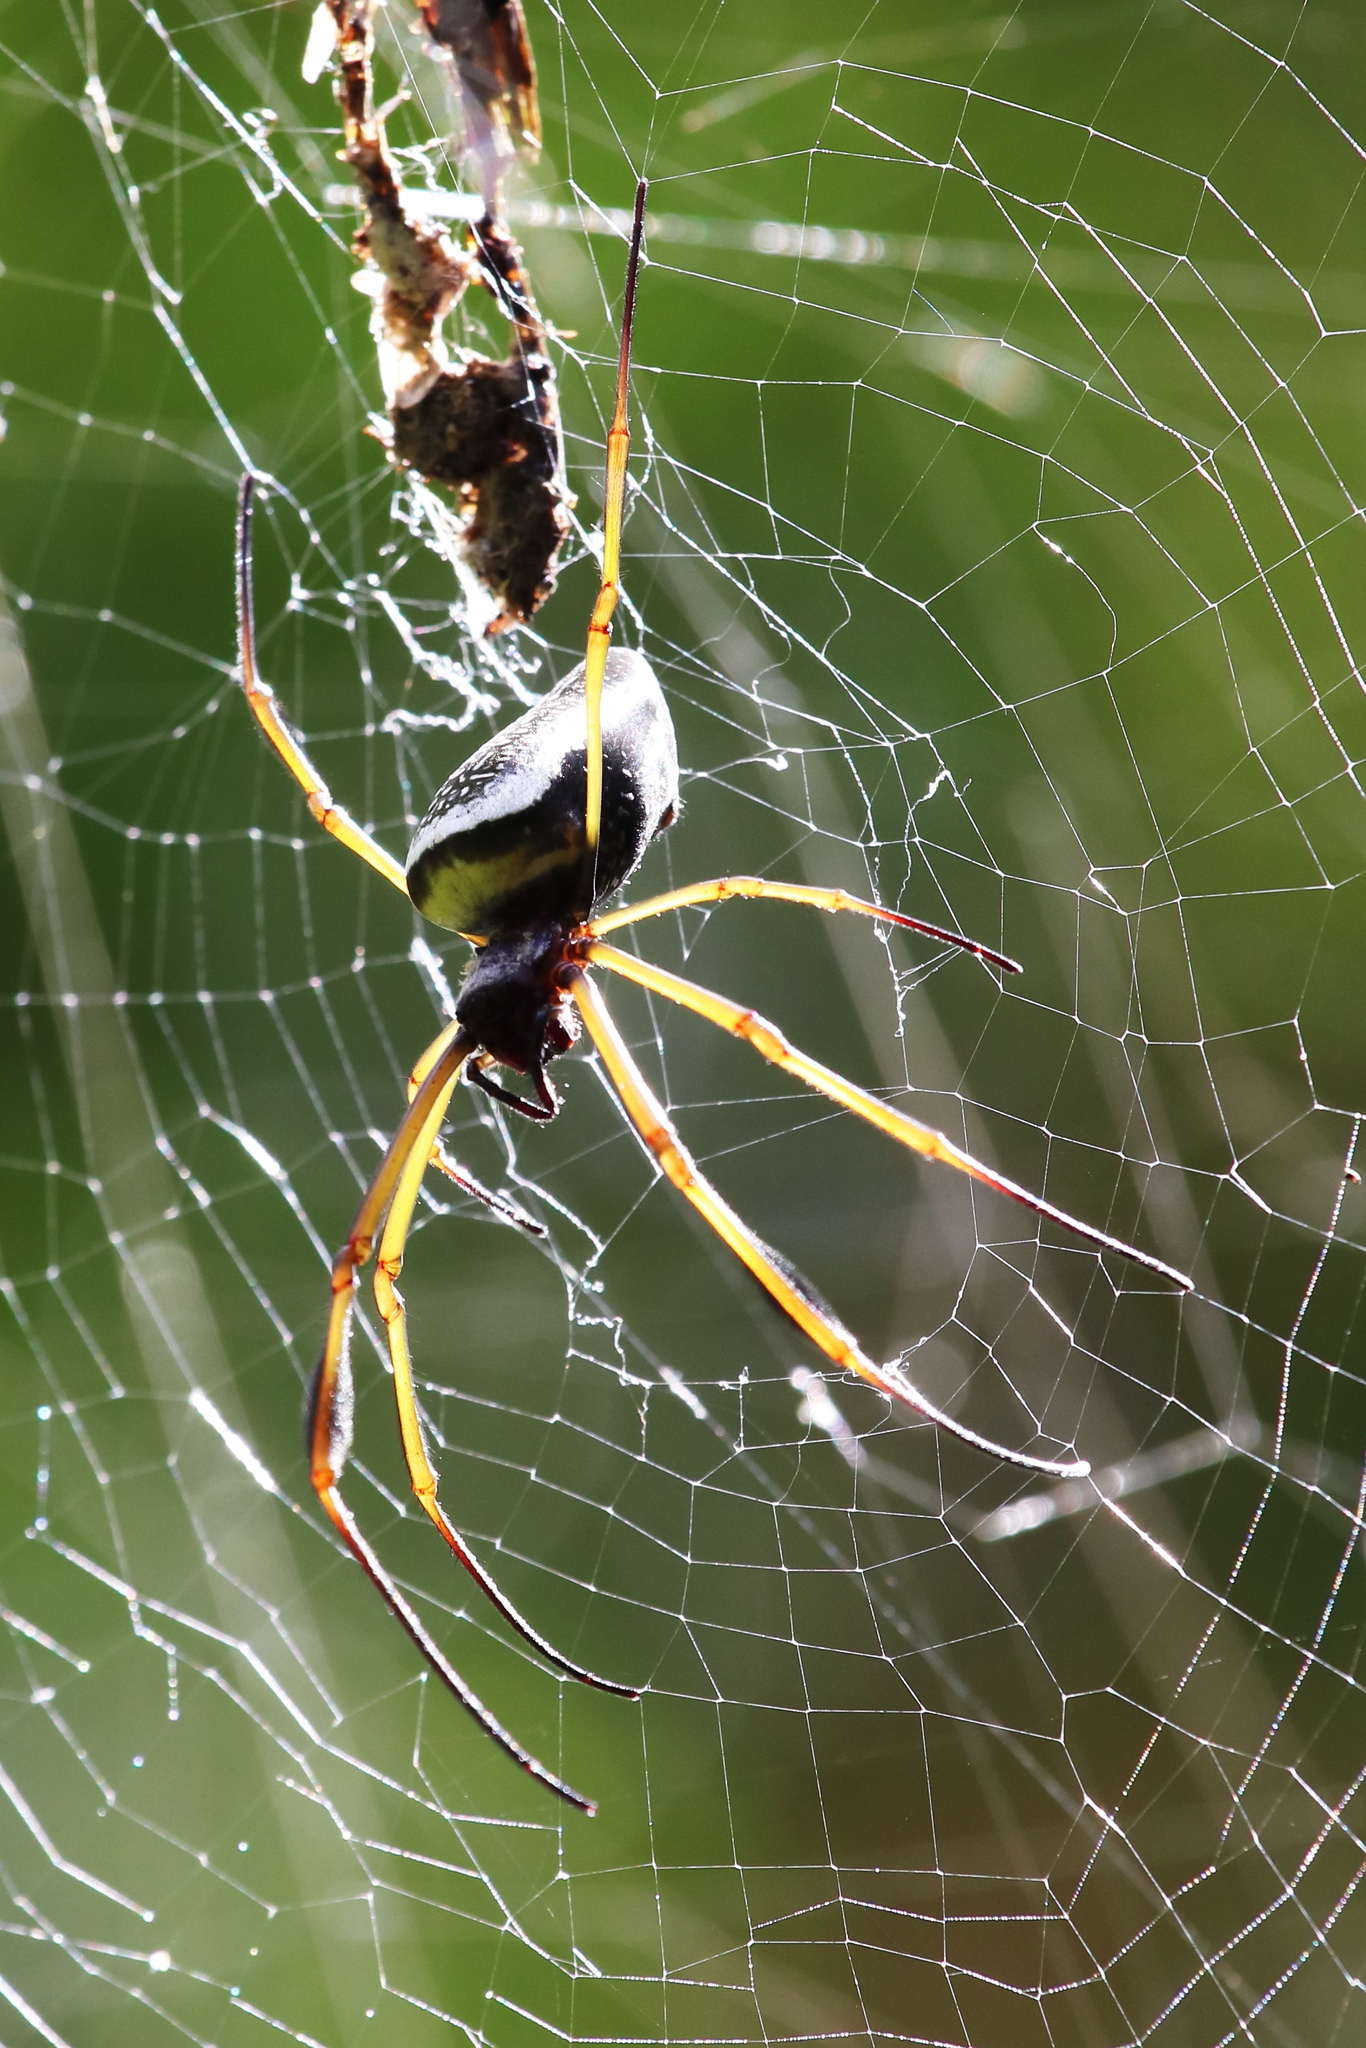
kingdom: Animalia
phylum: Arthropoda
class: Arachnida
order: Araneae
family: Araneidae
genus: Trichonephila
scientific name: Trichonephila clavipes
